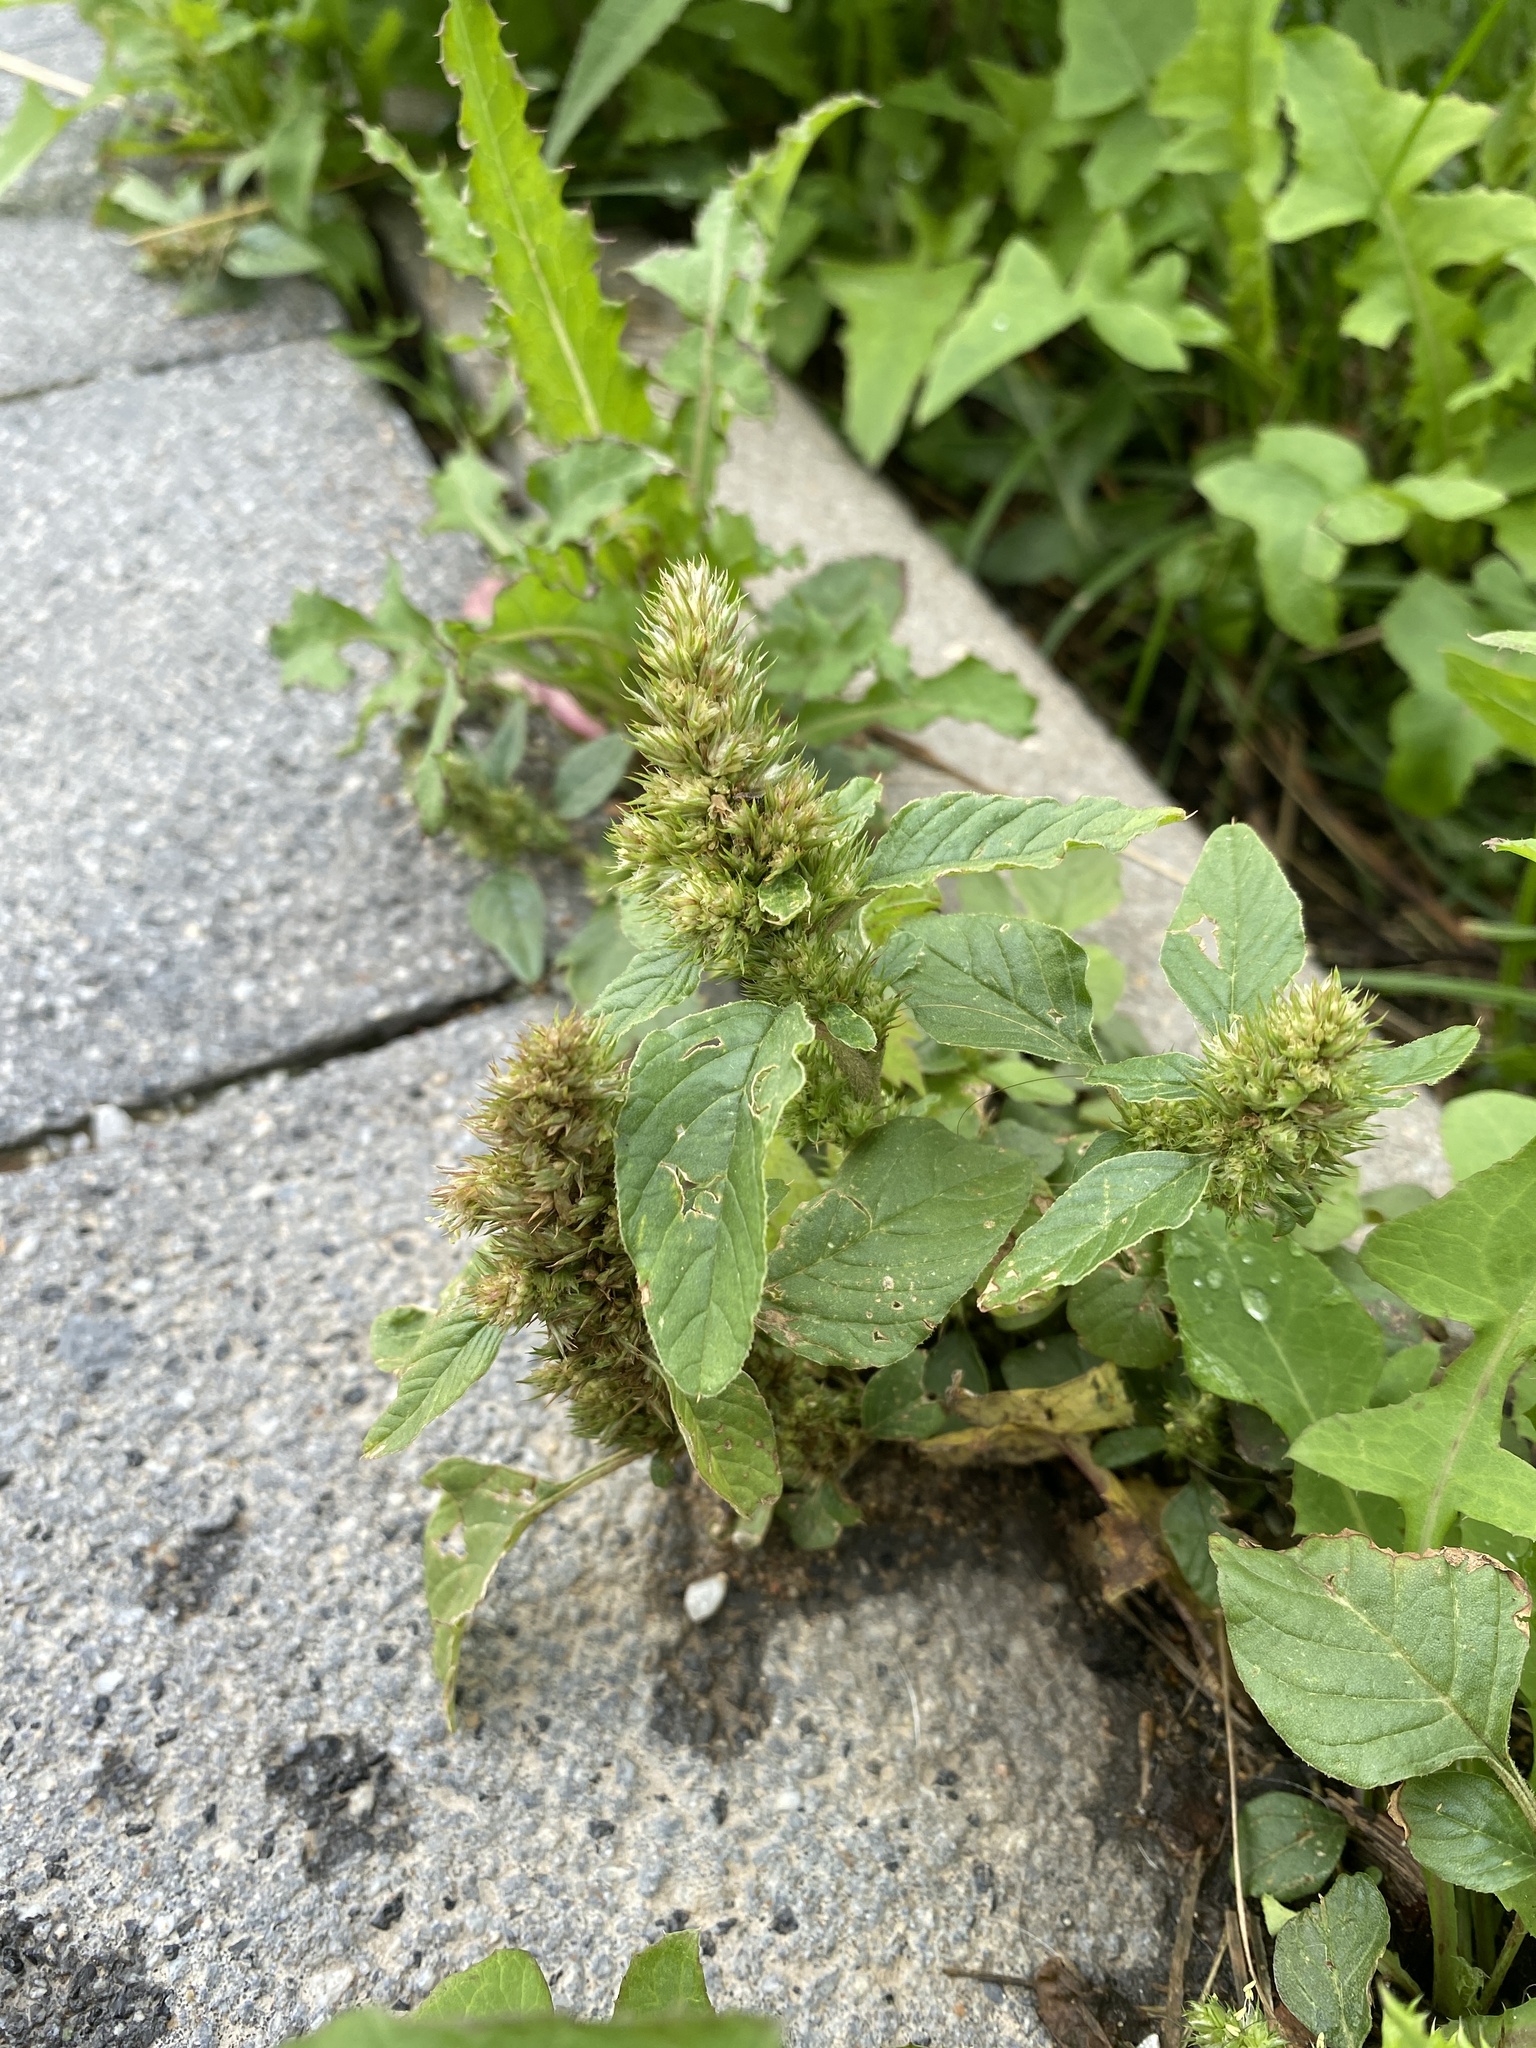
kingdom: Plantae
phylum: Tracheophyta
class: Magnoliopsida
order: Caryophyllales
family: Amaranthaceae
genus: Amaranthus
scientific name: Amaranthus retroflexus
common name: Redroot amaranth
